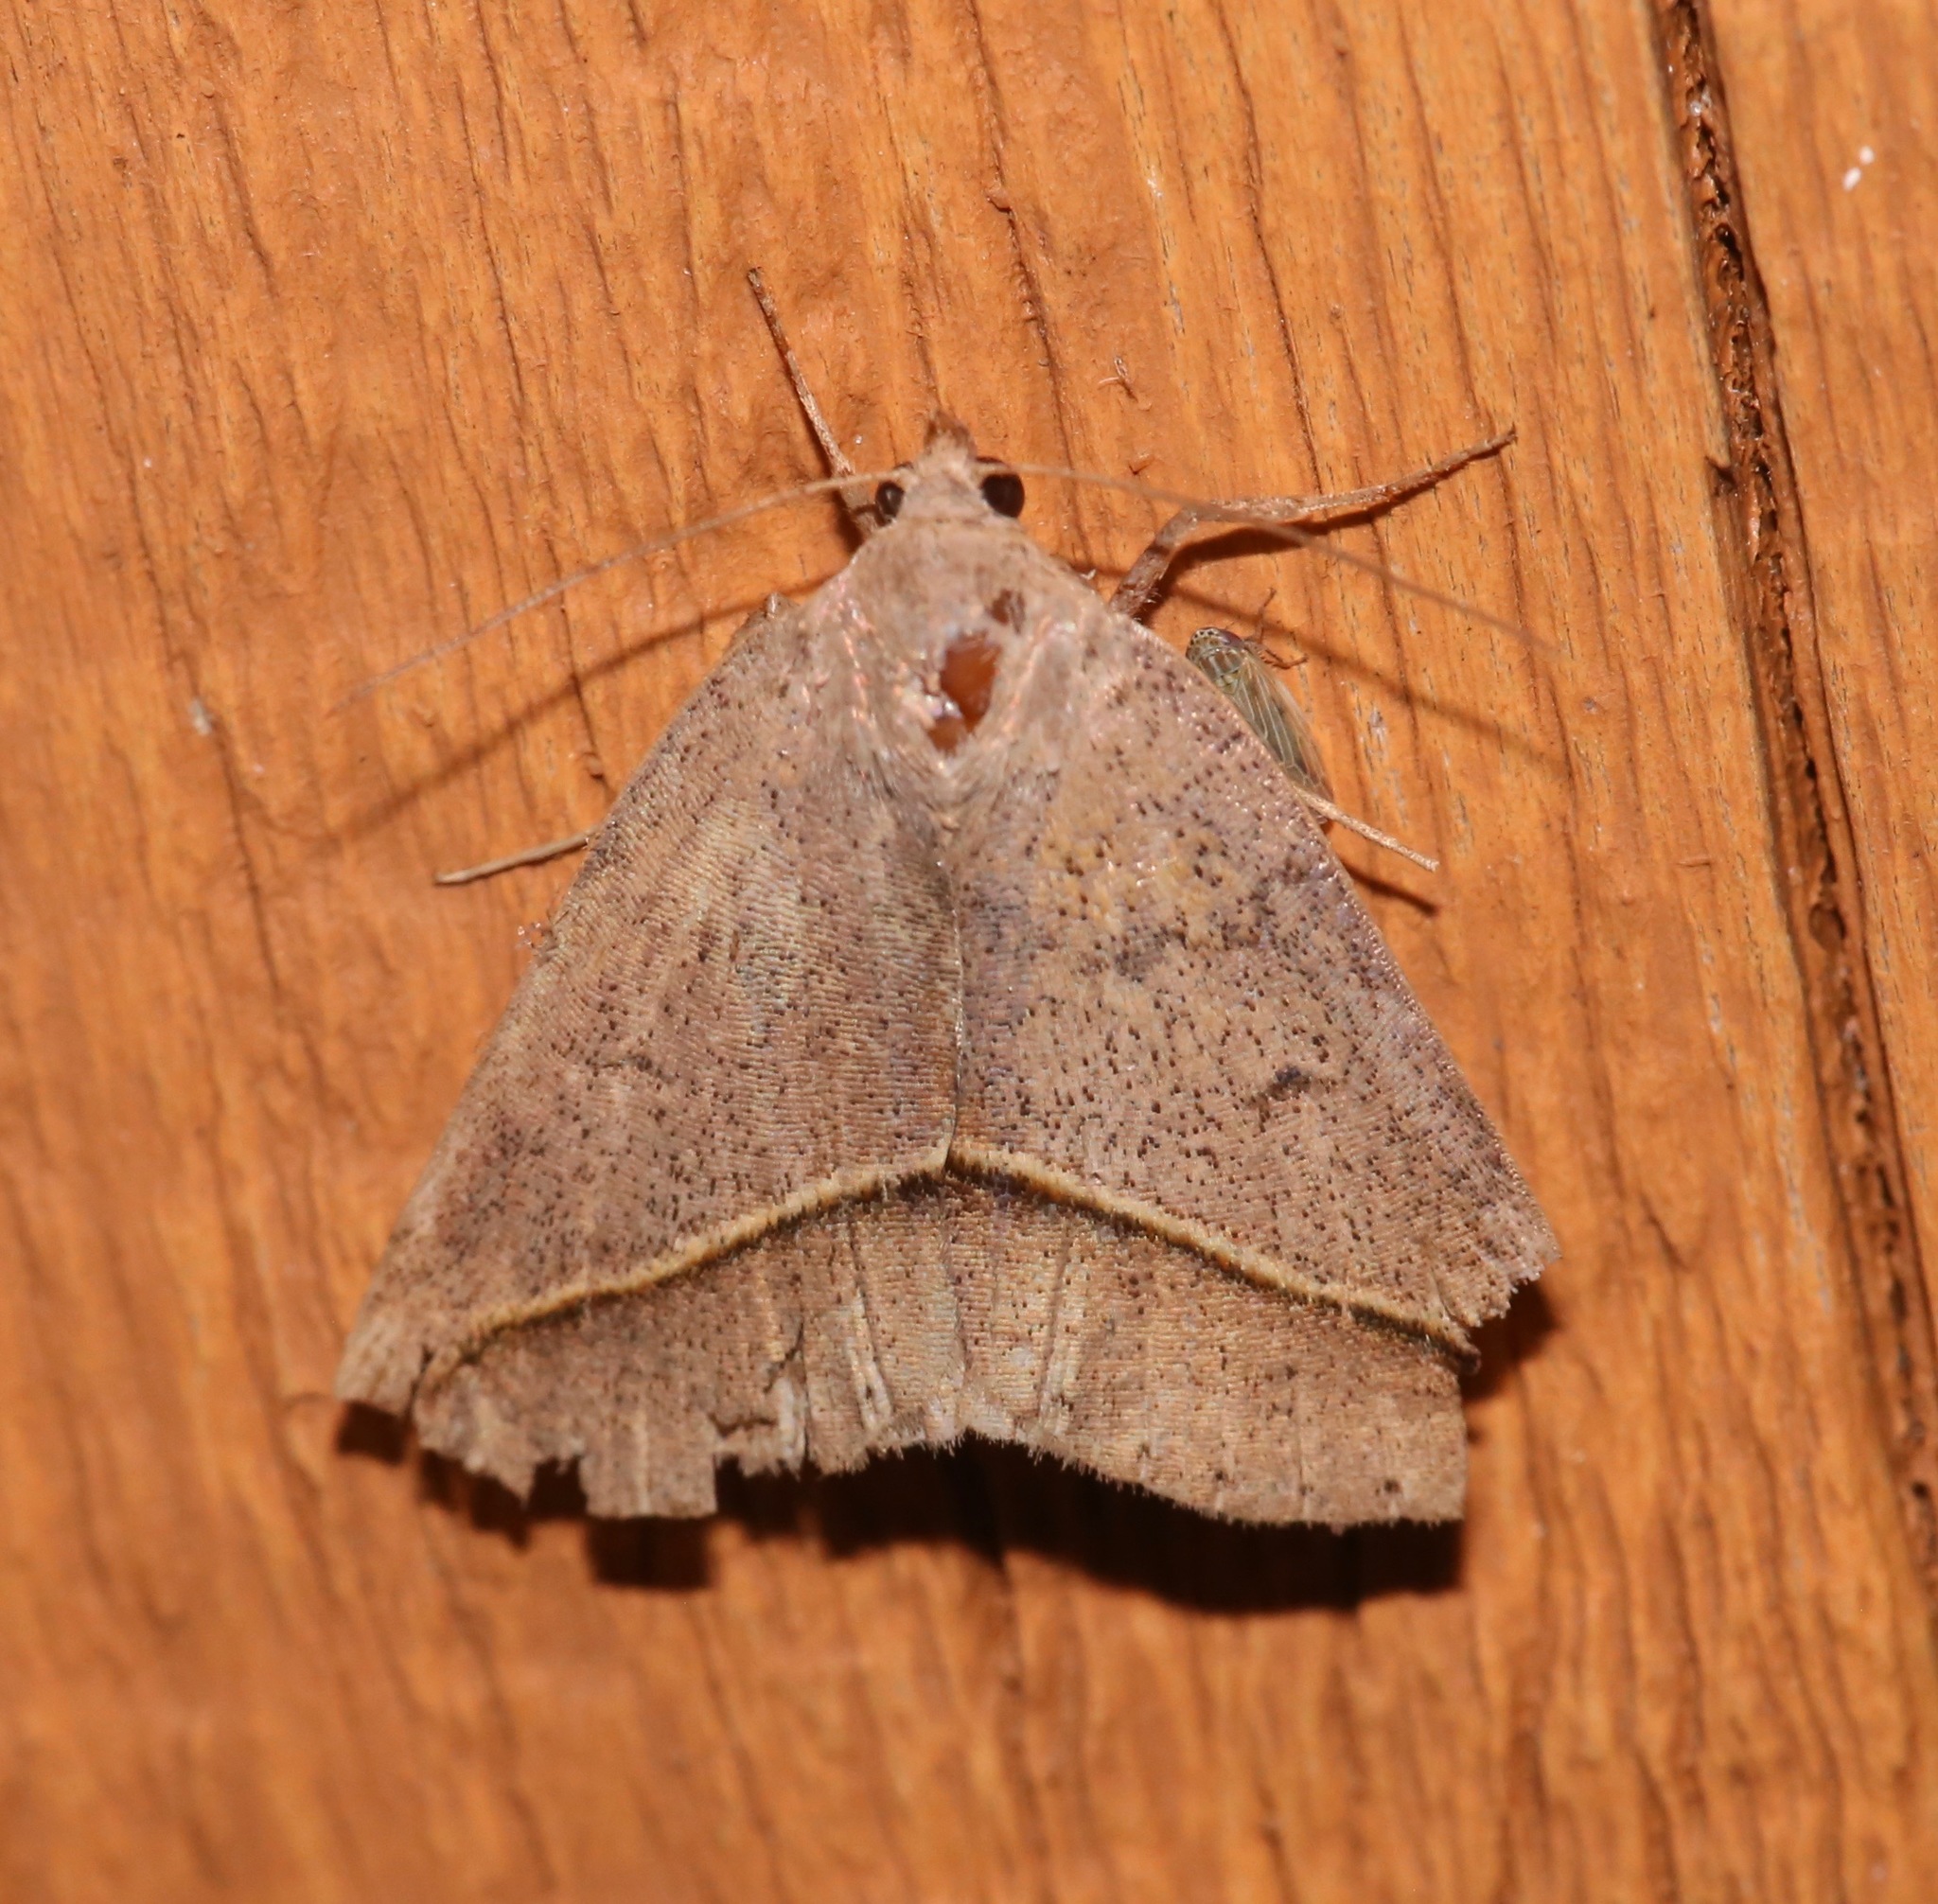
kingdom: Animalia
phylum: Arthropoda
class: Insecta
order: Lepidoptera
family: Erebidae
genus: Argyrostrotis
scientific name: Argyrostrotis flavistriaria
